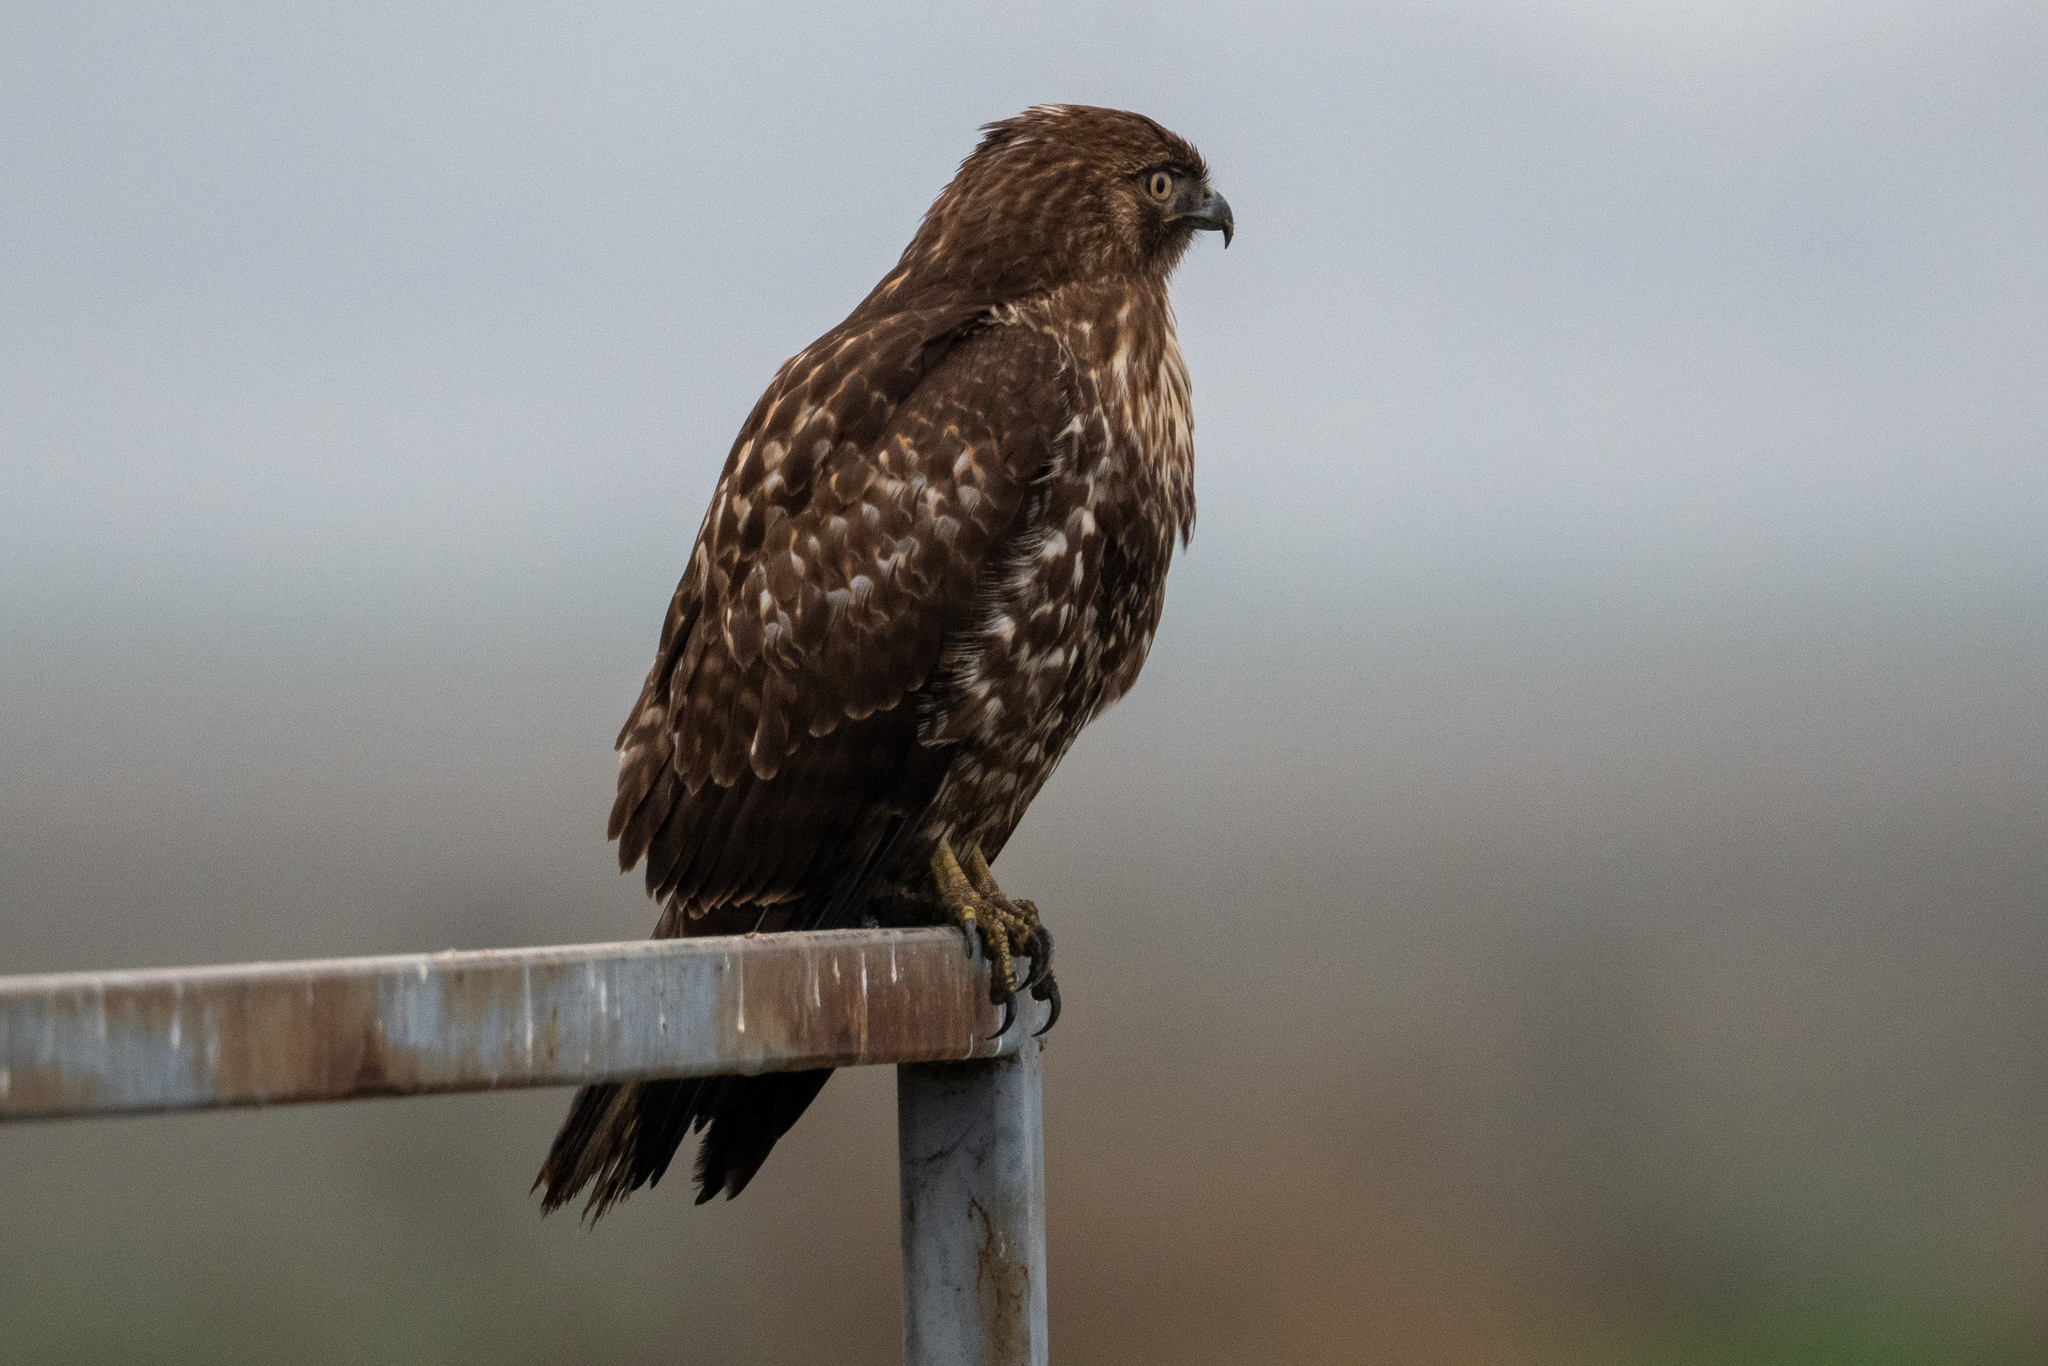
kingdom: Animalia
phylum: Chordata
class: Aves
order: Accipitriformes
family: Accipitridae
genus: Buteo
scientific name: Buteo jamaicensis
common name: Red-tailed hawk
